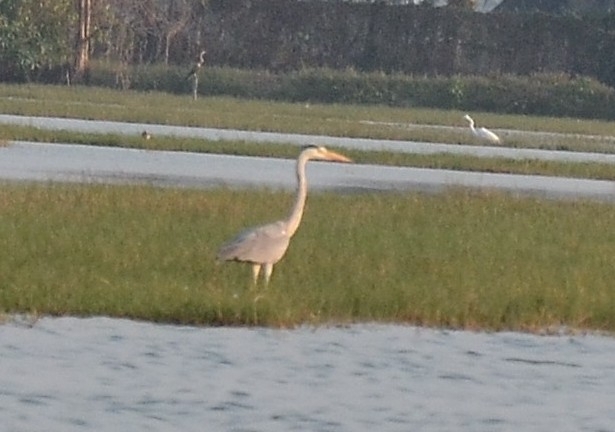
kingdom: Animalia
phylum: Chordata
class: Aves
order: Pelecaniformes
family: Ardeidae
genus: Ardea
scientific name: Ardea cinerea
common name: Grey heron
